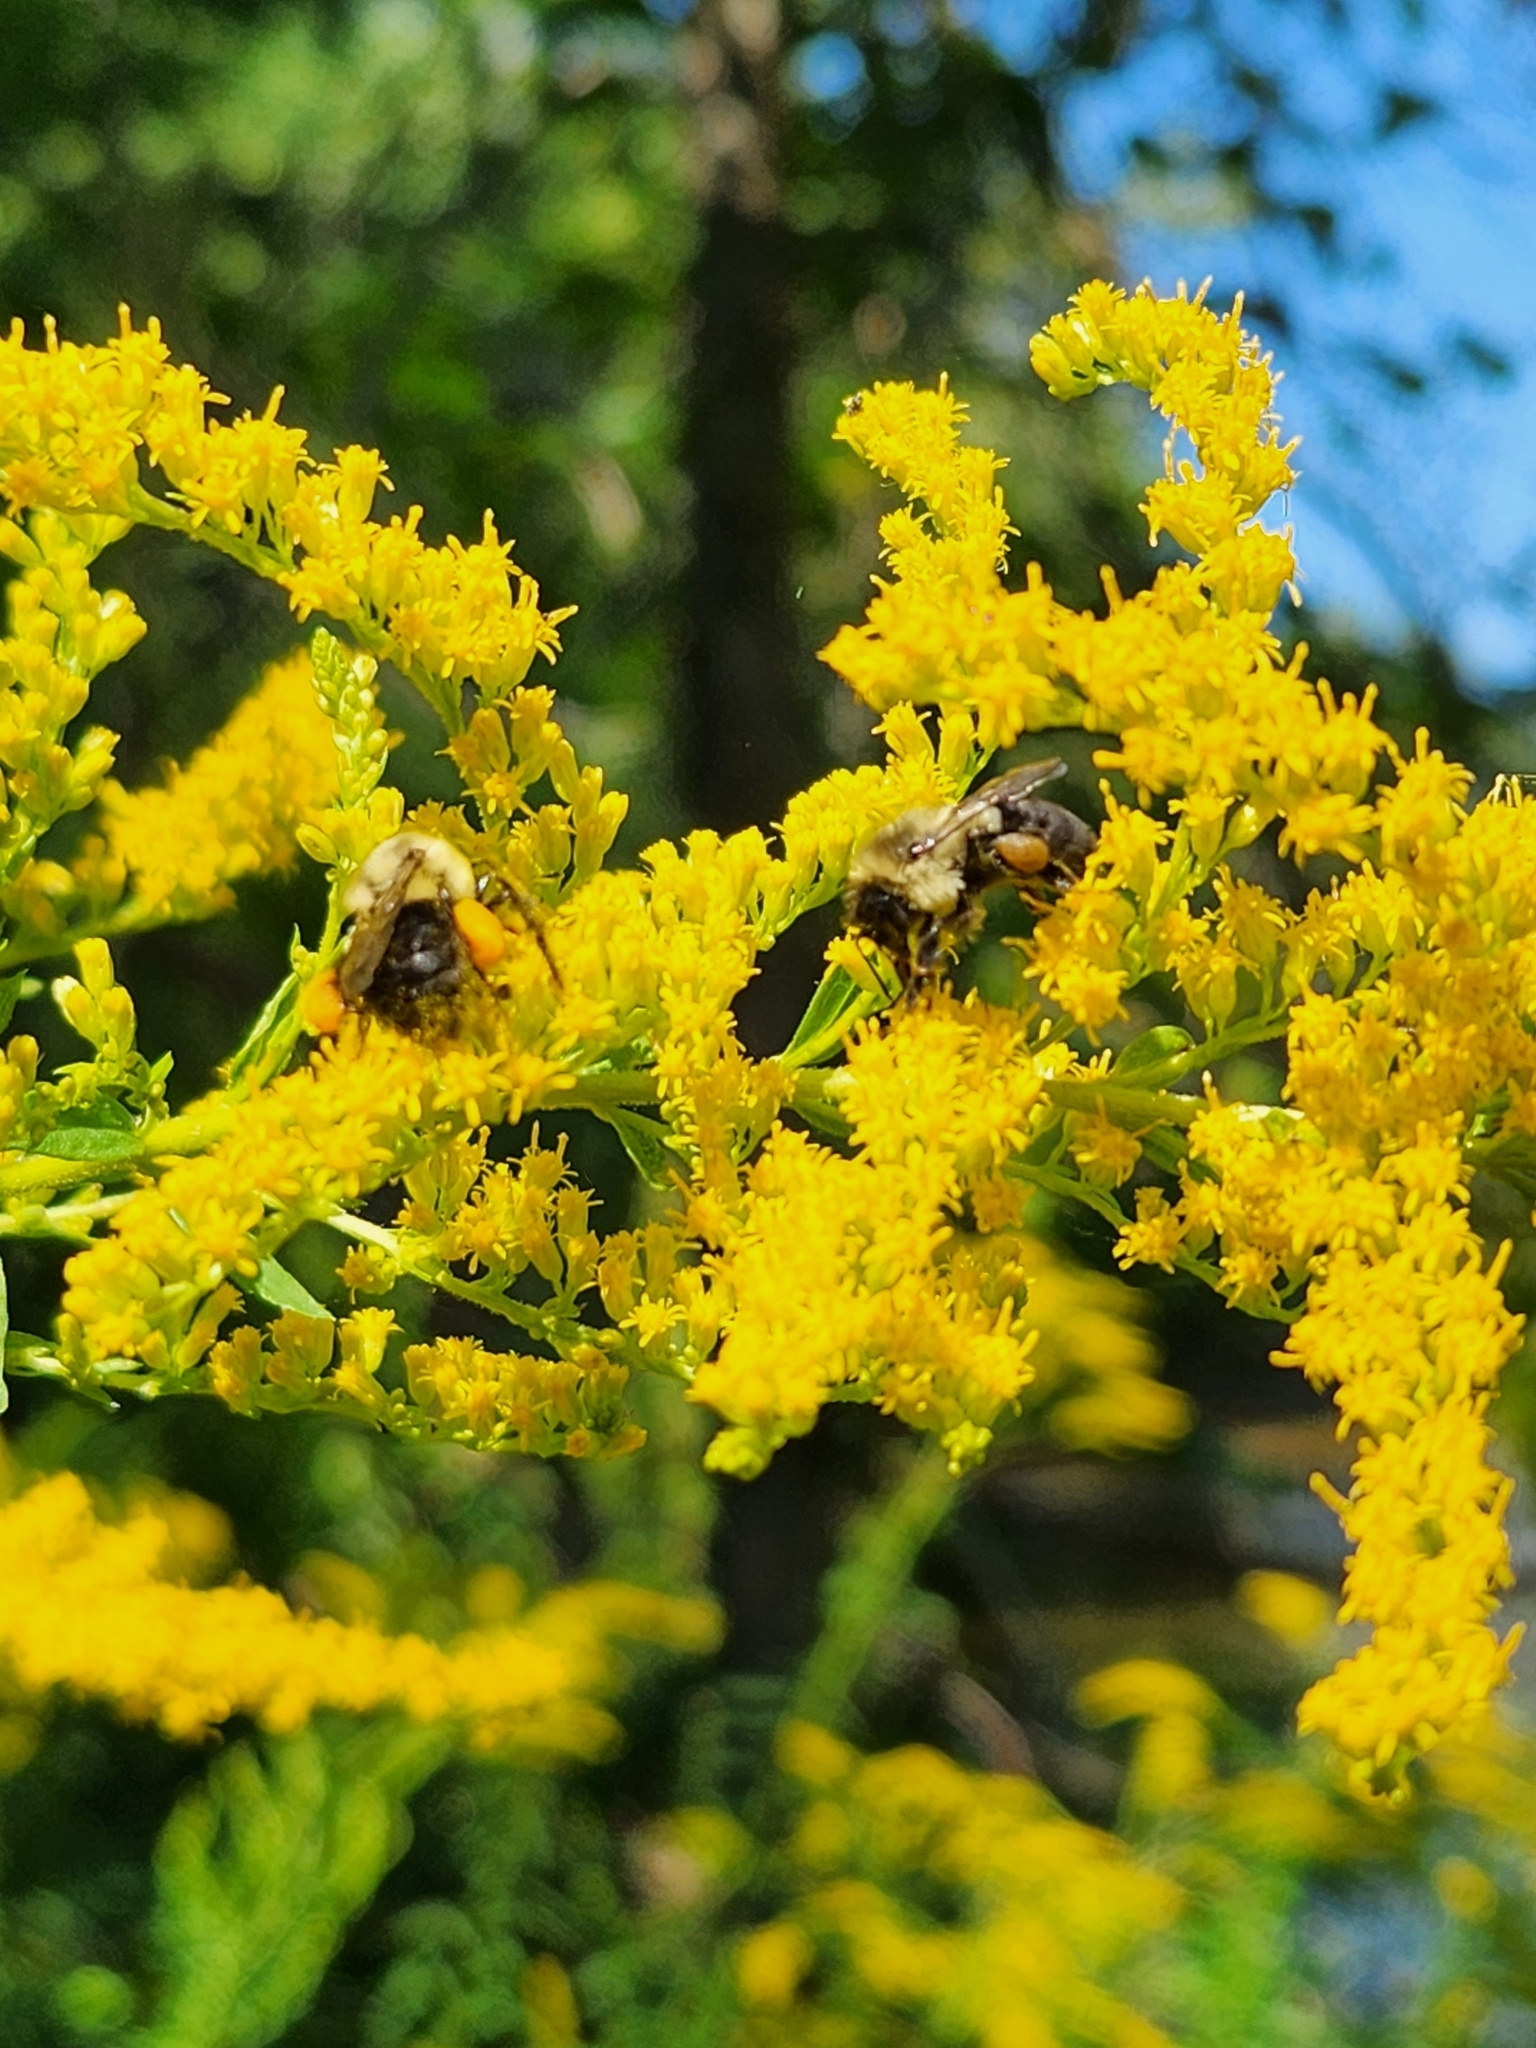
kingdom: Animalia
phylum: Arthropoda
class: Insecta
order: Hymenoptera
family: Apidae
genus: Bombus
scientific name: Bombus impatiens
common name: Common eastern bumble bee
